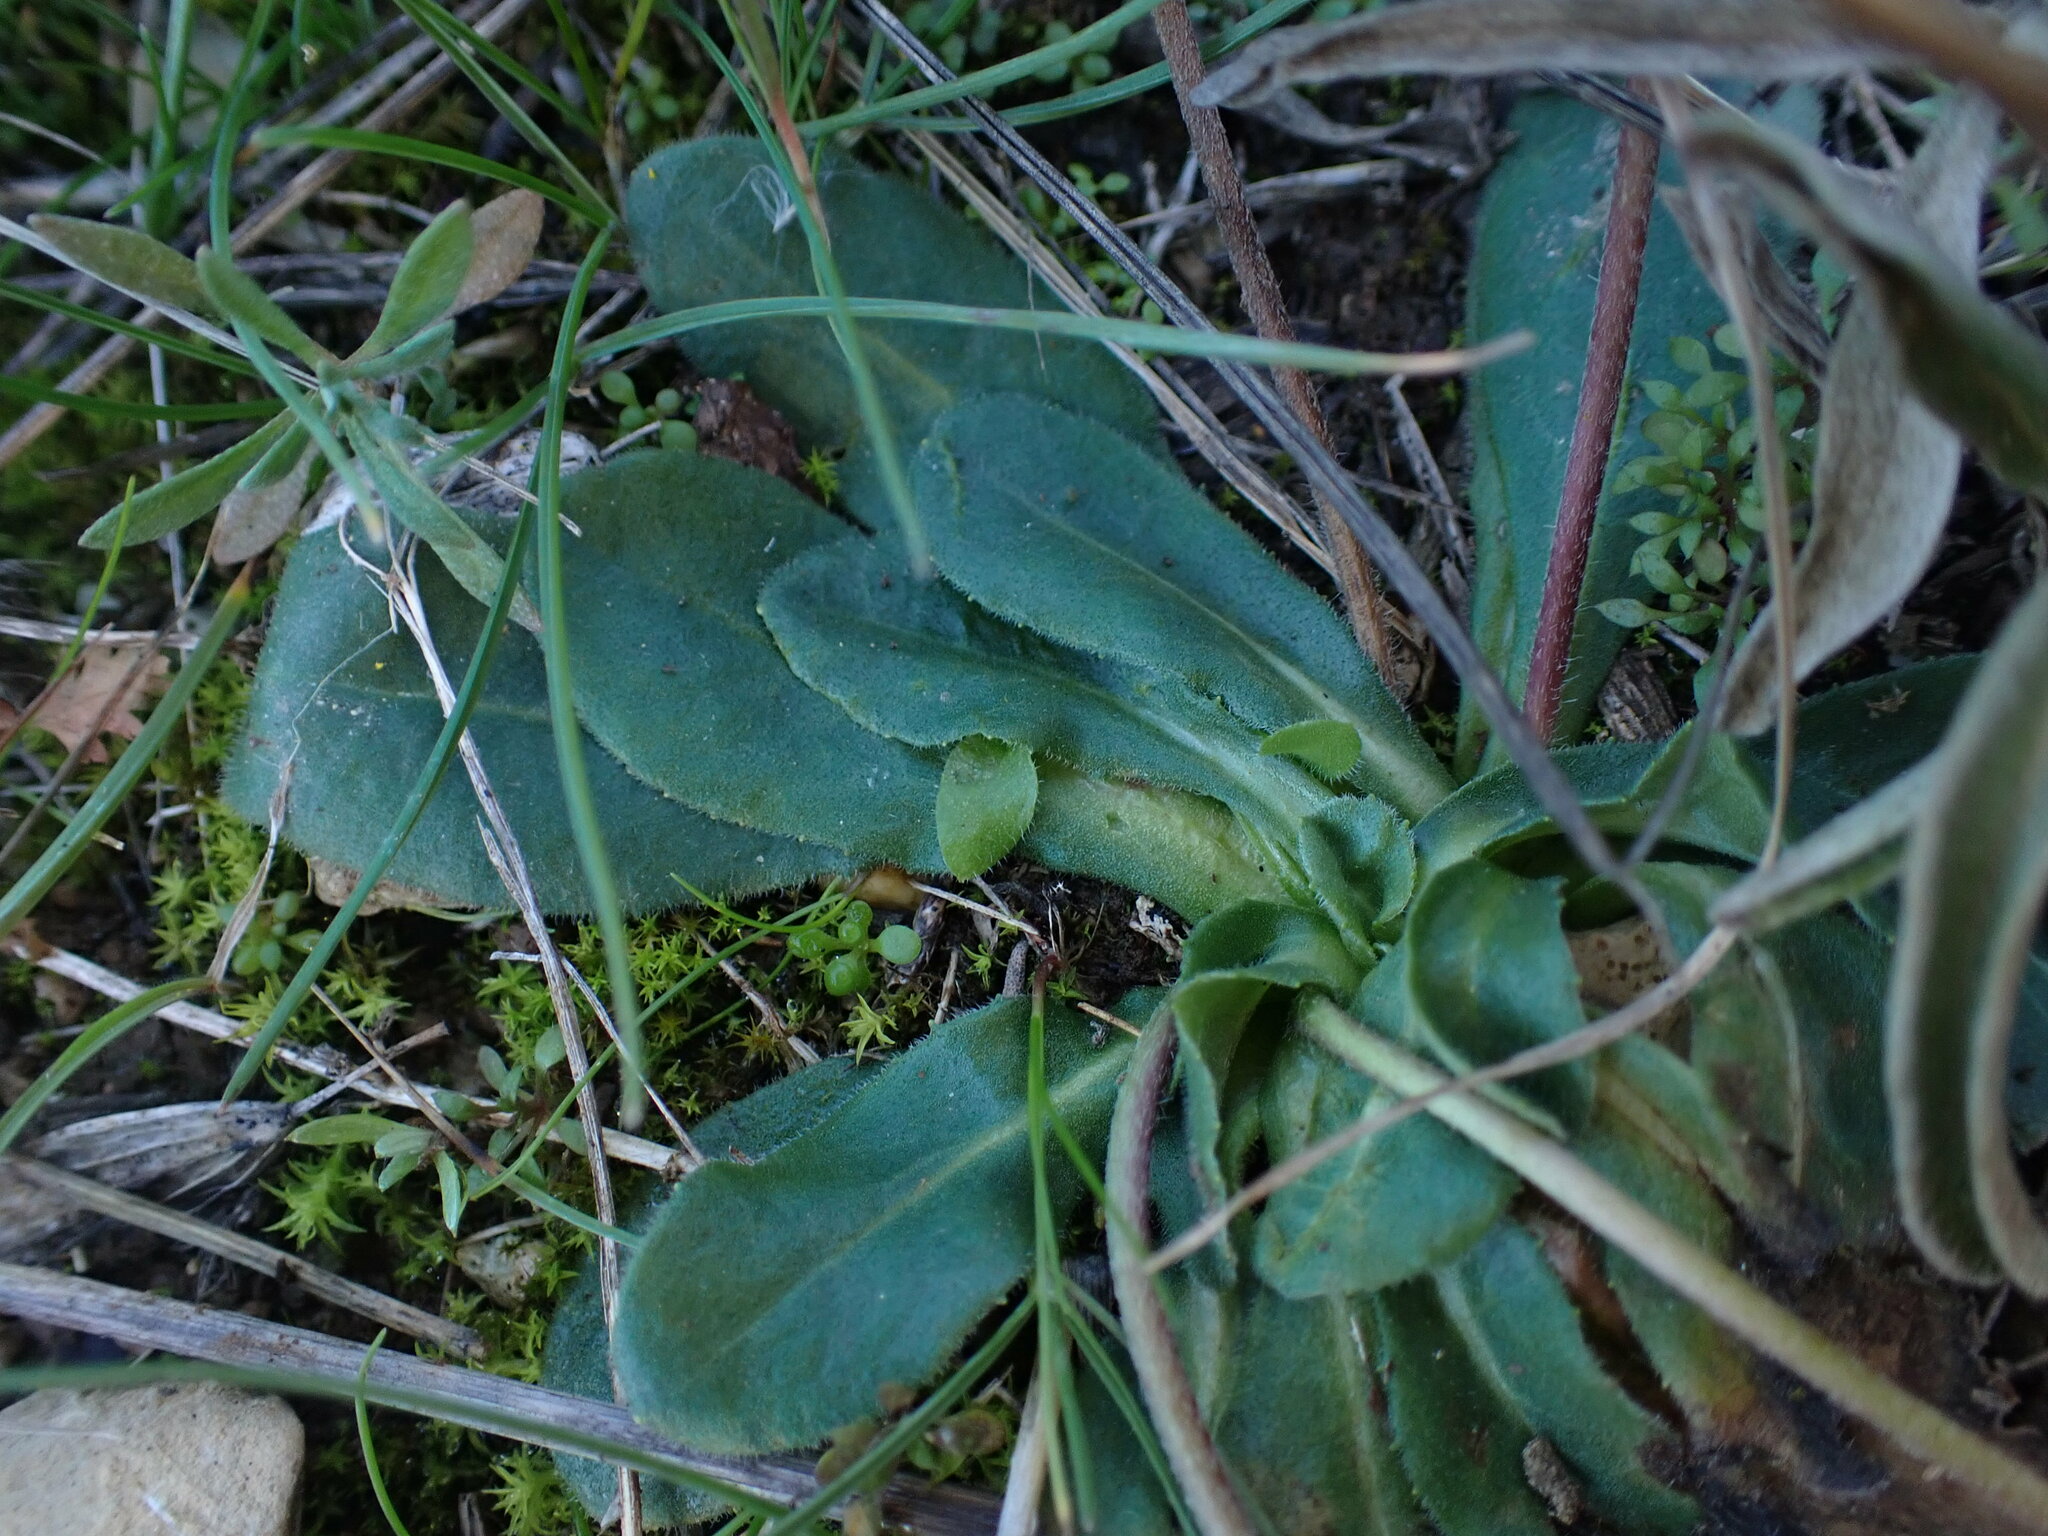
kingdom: Plantae
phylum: Tracheophyta
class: Magnoliopsida
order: Asterales
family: Asteraceae
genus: Bellis
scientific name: Bellis sylvestris
